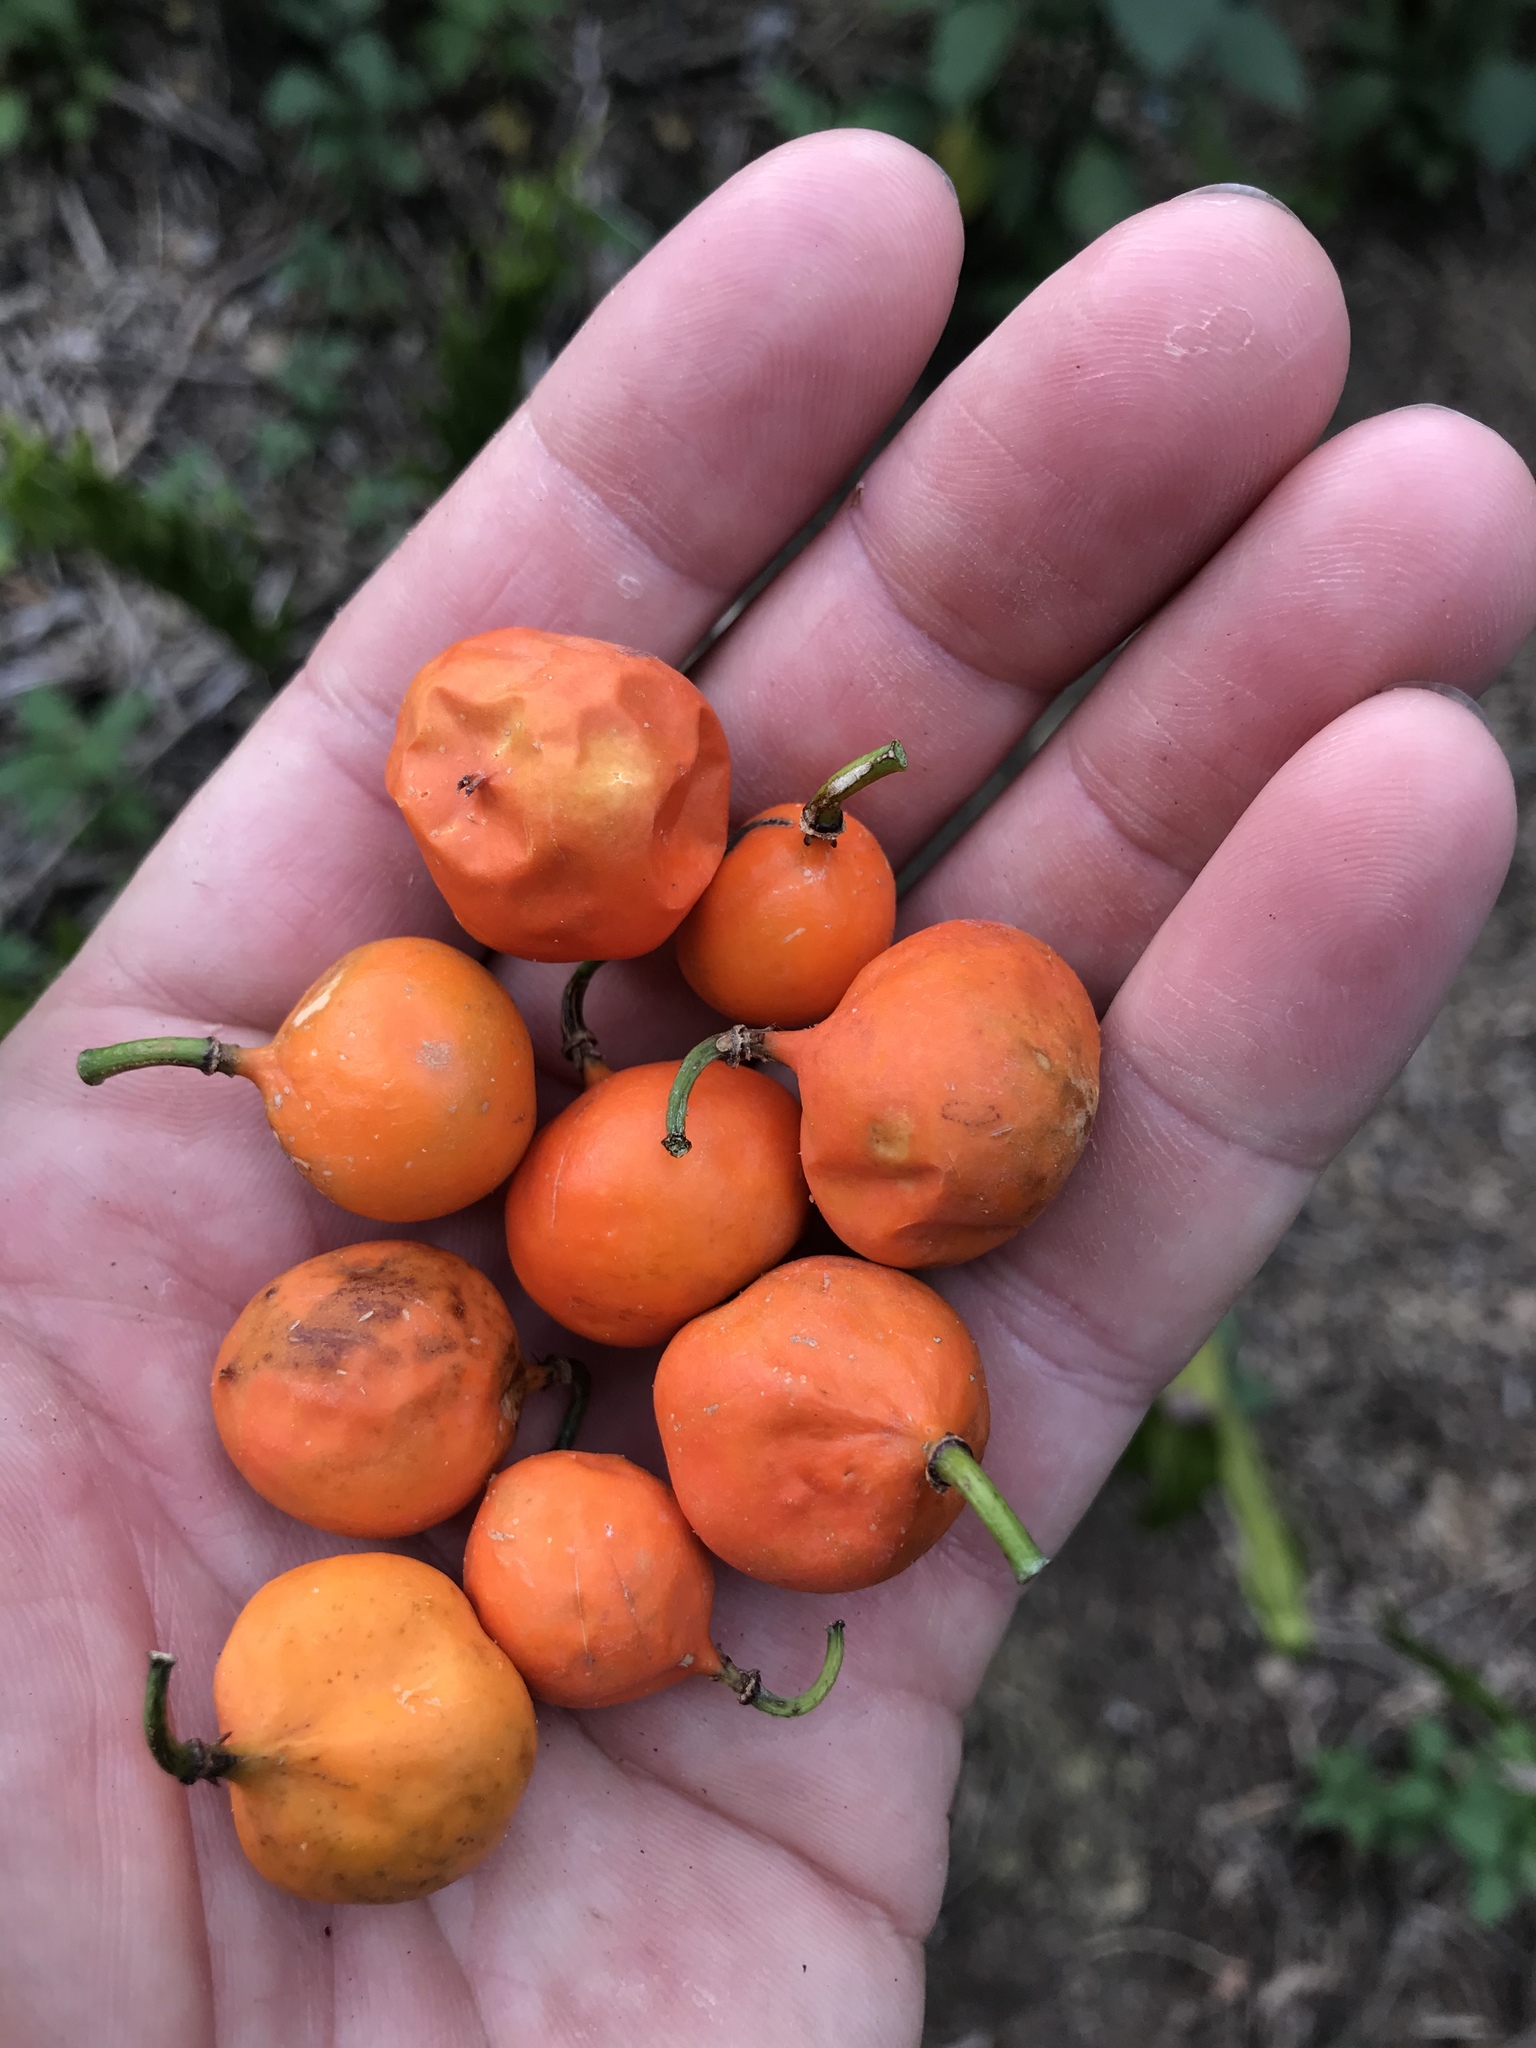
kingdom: Plantae
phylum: Tracheophyta
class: Magnoliopsida
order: Malpighiales
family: Passifloraceae
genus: Passiflora
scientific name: Passiflora tetrandra
